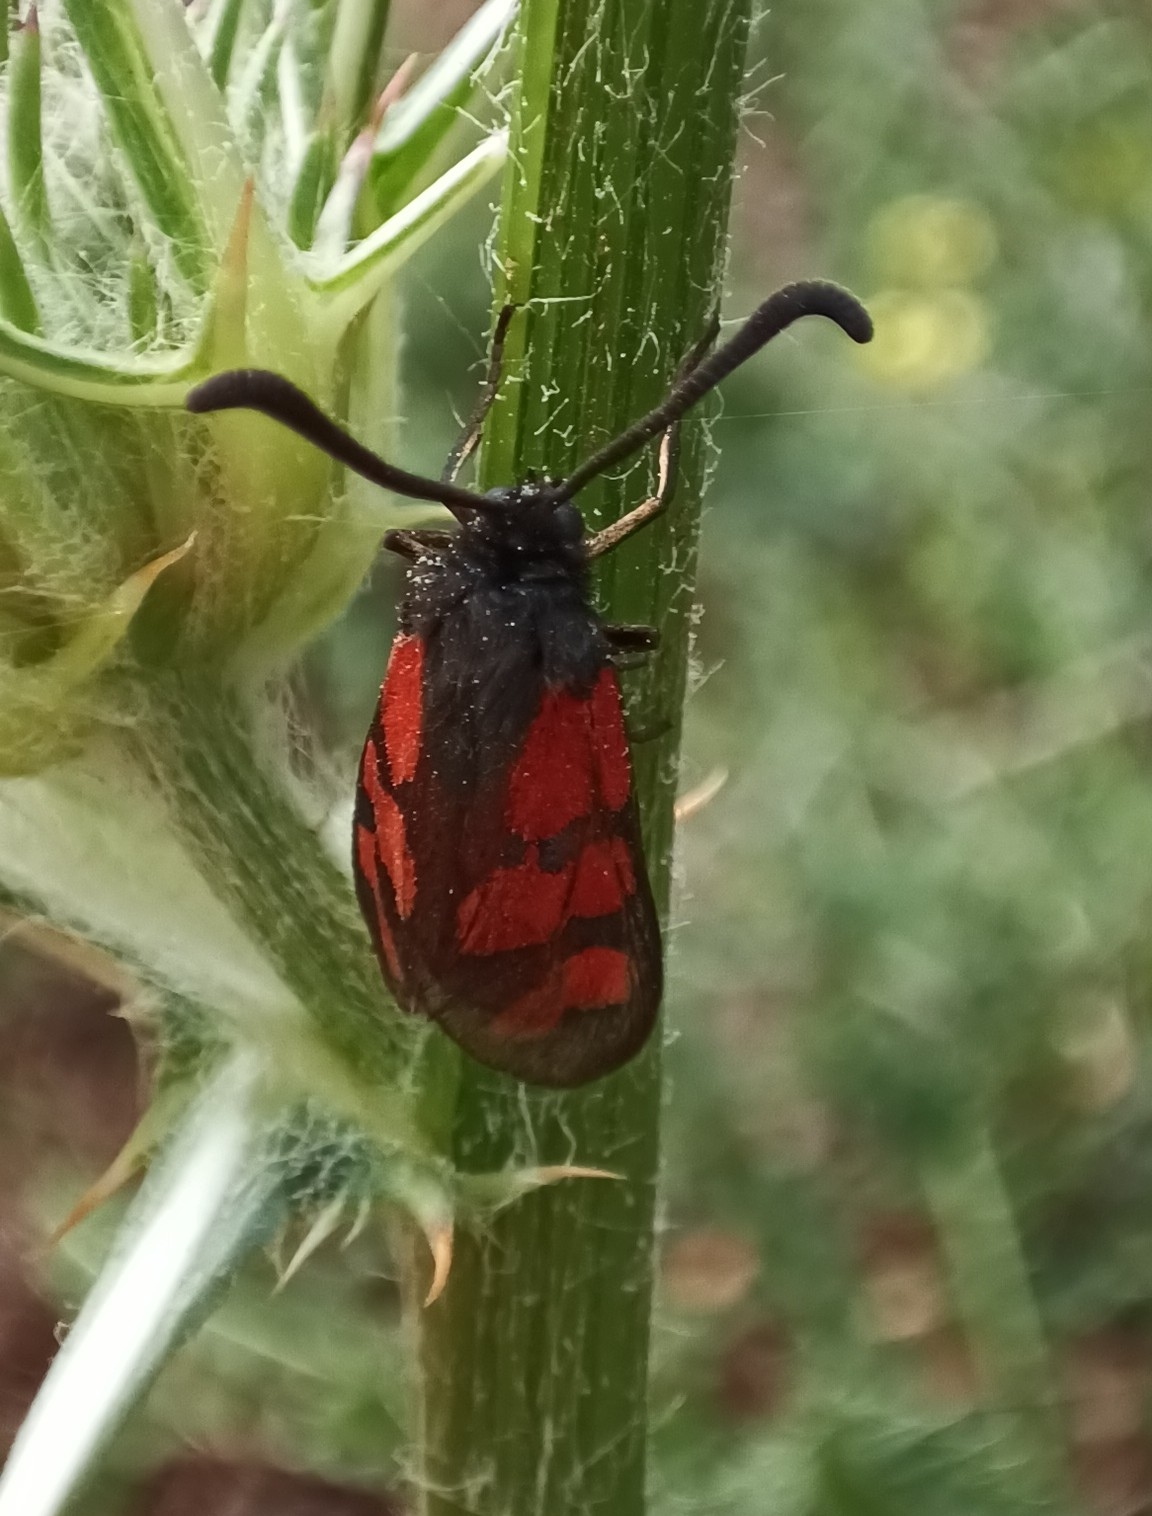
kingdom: Animalia
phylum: Arthropoda
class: Insecta
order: Lepidoptera
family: Zygaenidae
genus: Zygaena
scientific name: Zygaena graslini
